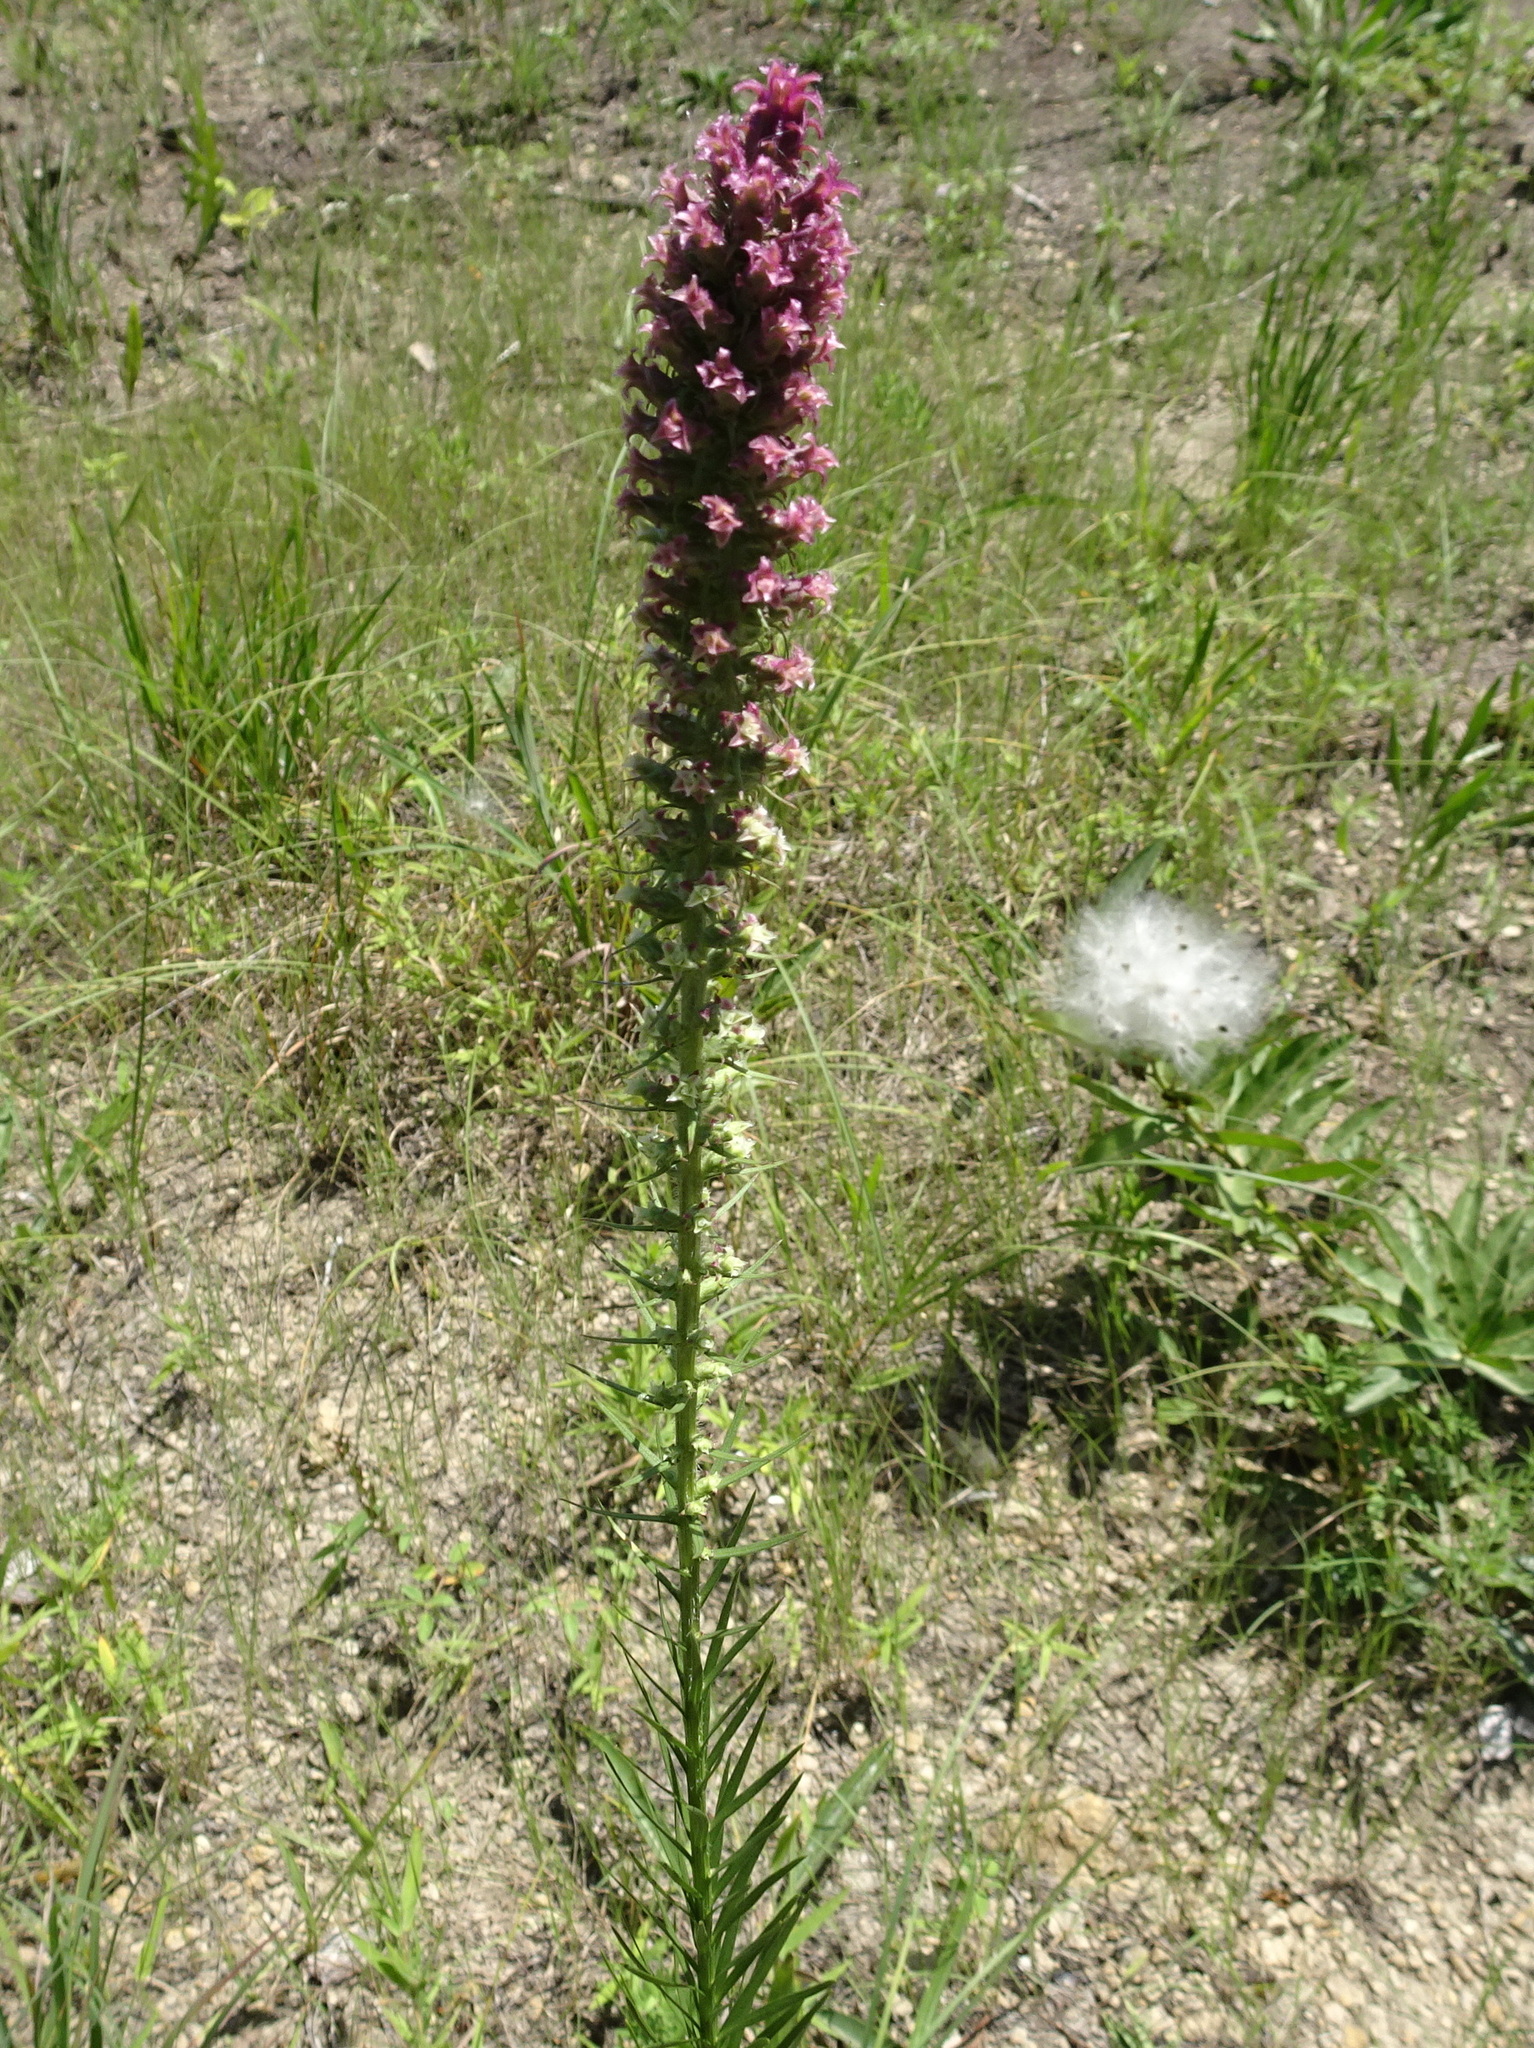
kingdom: Plantae
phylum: Tracheophyta
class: Magnoliopsida
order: Asterales
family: Asteraceae
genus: Liatris
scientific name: Liatris pycnostachya
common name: Cattail gayfeather
